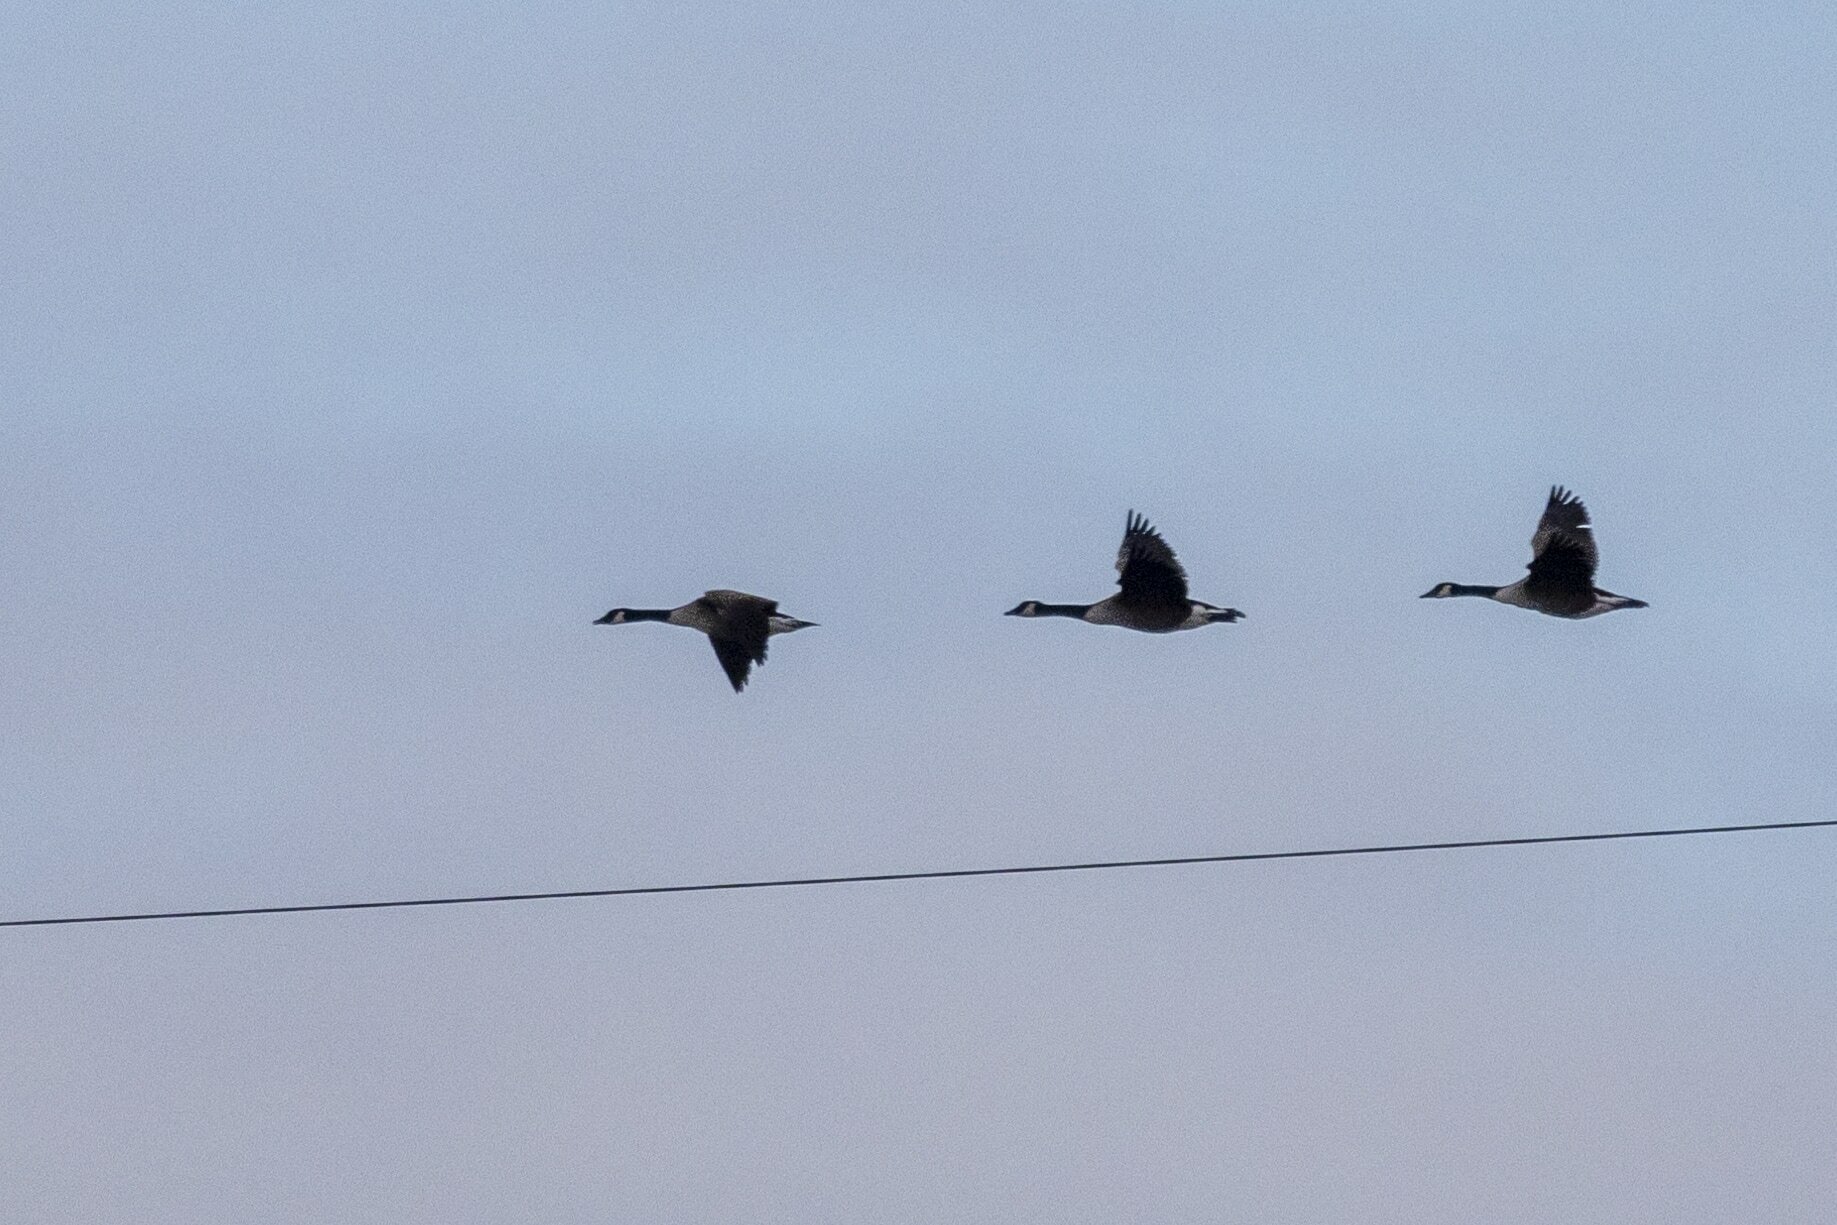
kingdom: Animalia
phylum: Chordata
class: Aves
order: Anseriformes
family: Anatidae
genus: Branta
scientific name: Branta canadensis
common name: Canada goose
